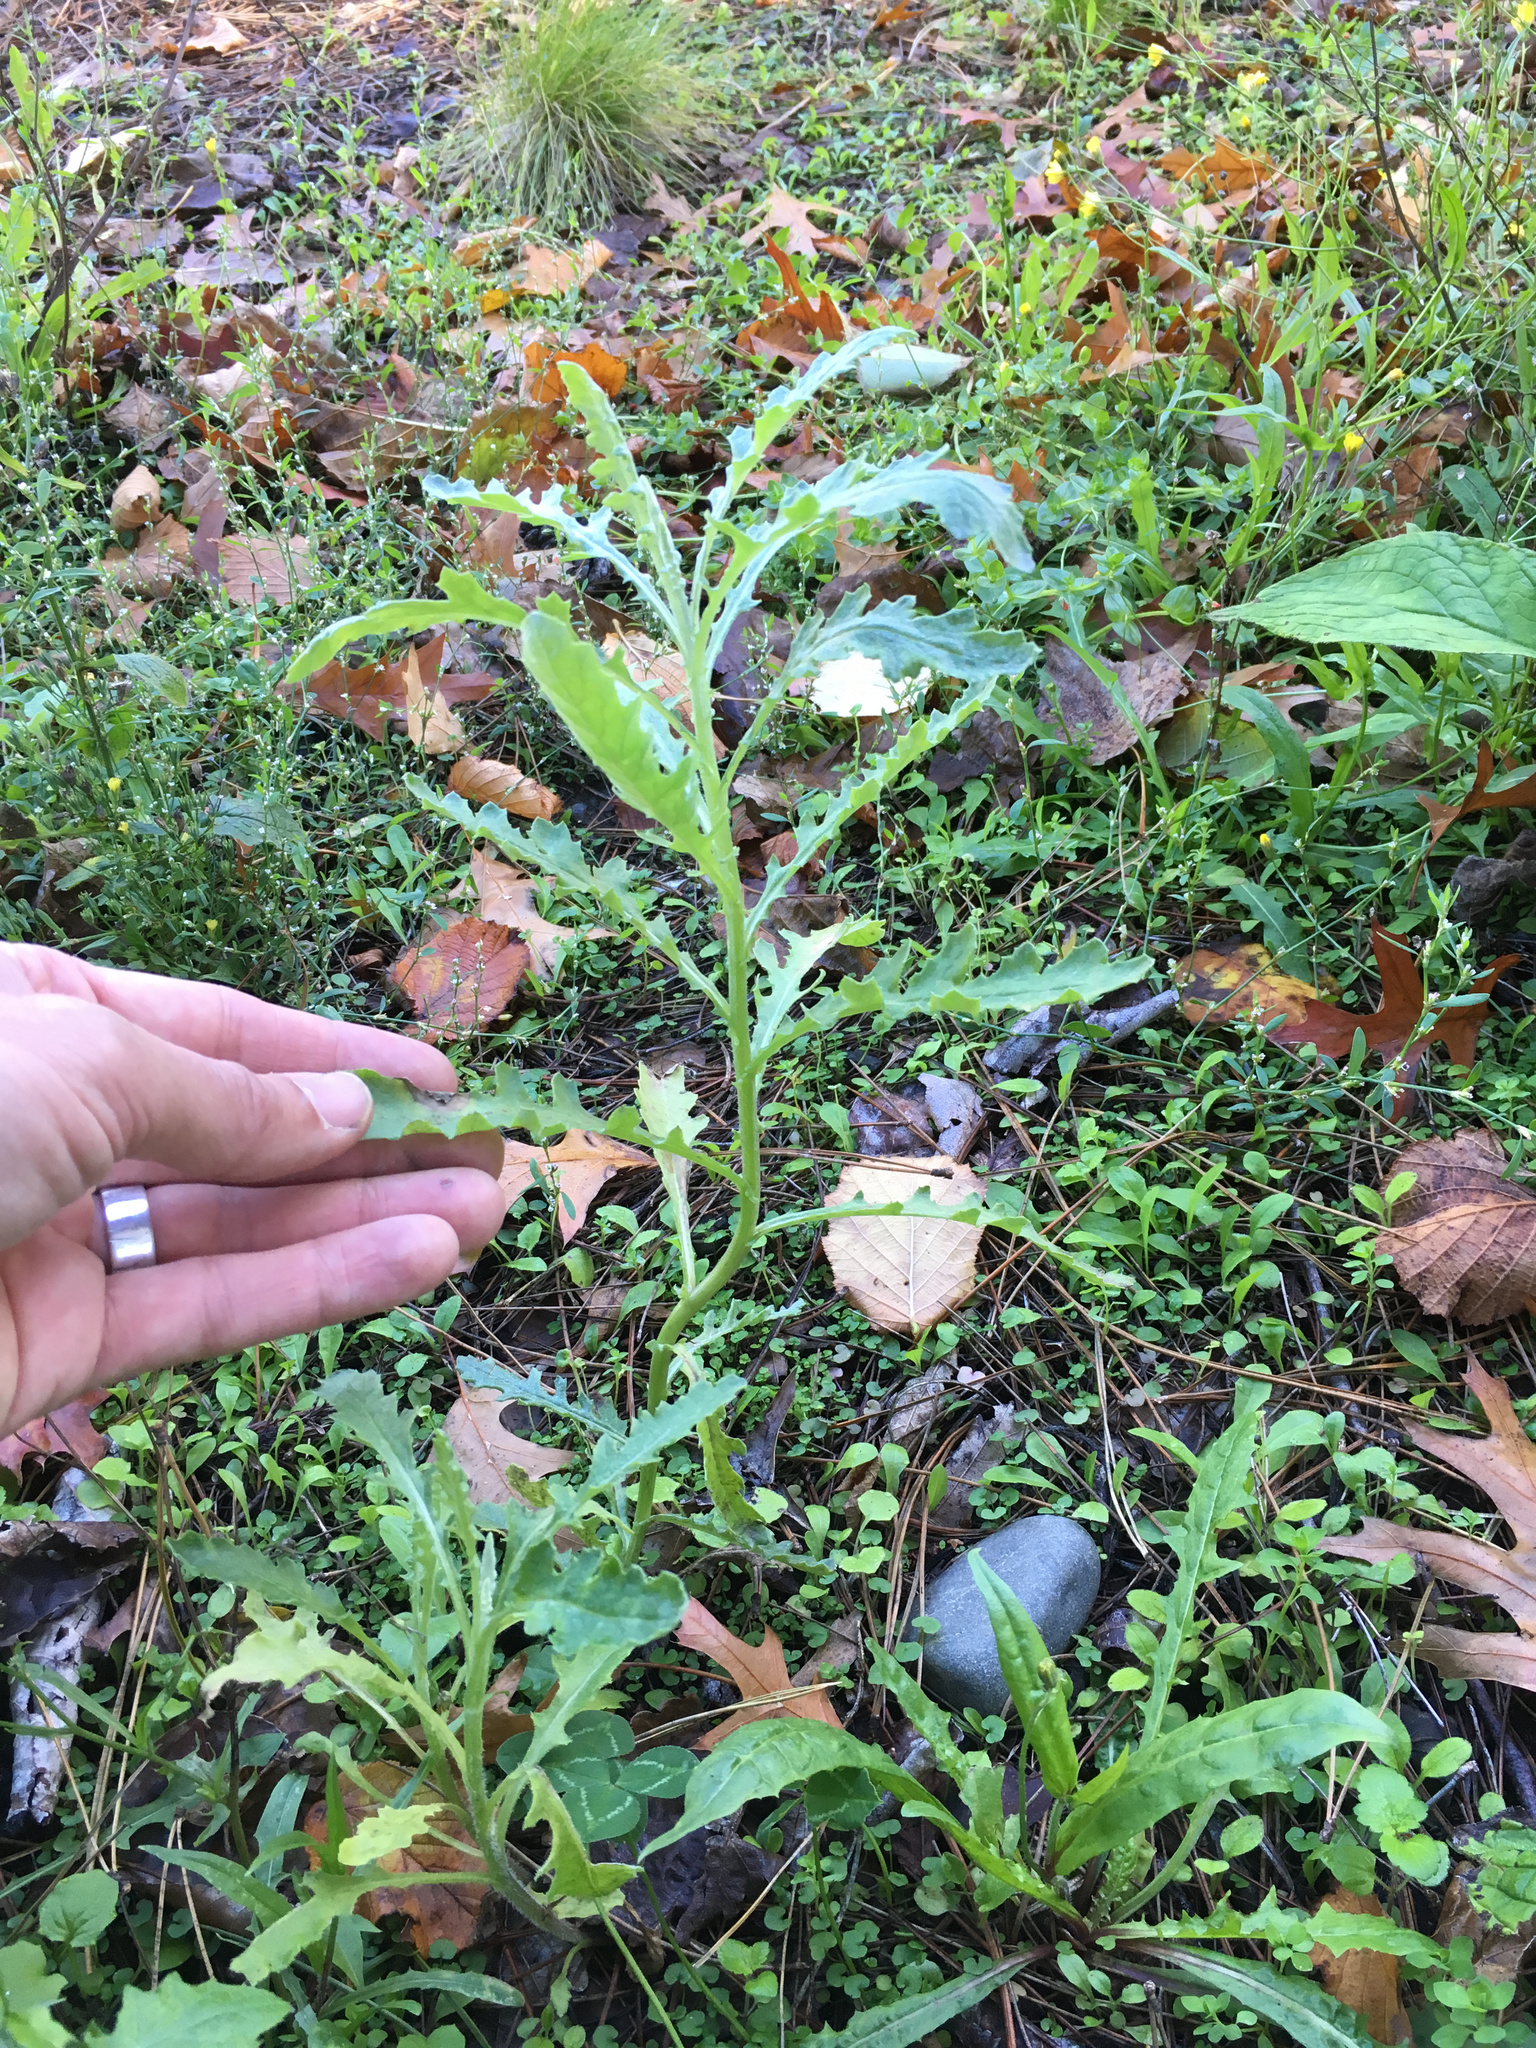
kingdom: Plantae
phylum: Tracheophyta
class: Magnoliopsida
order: Asterales
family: Asteraceae
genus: Senecio
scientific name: Senecio glomeratus
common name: Cutleaf burnweed
